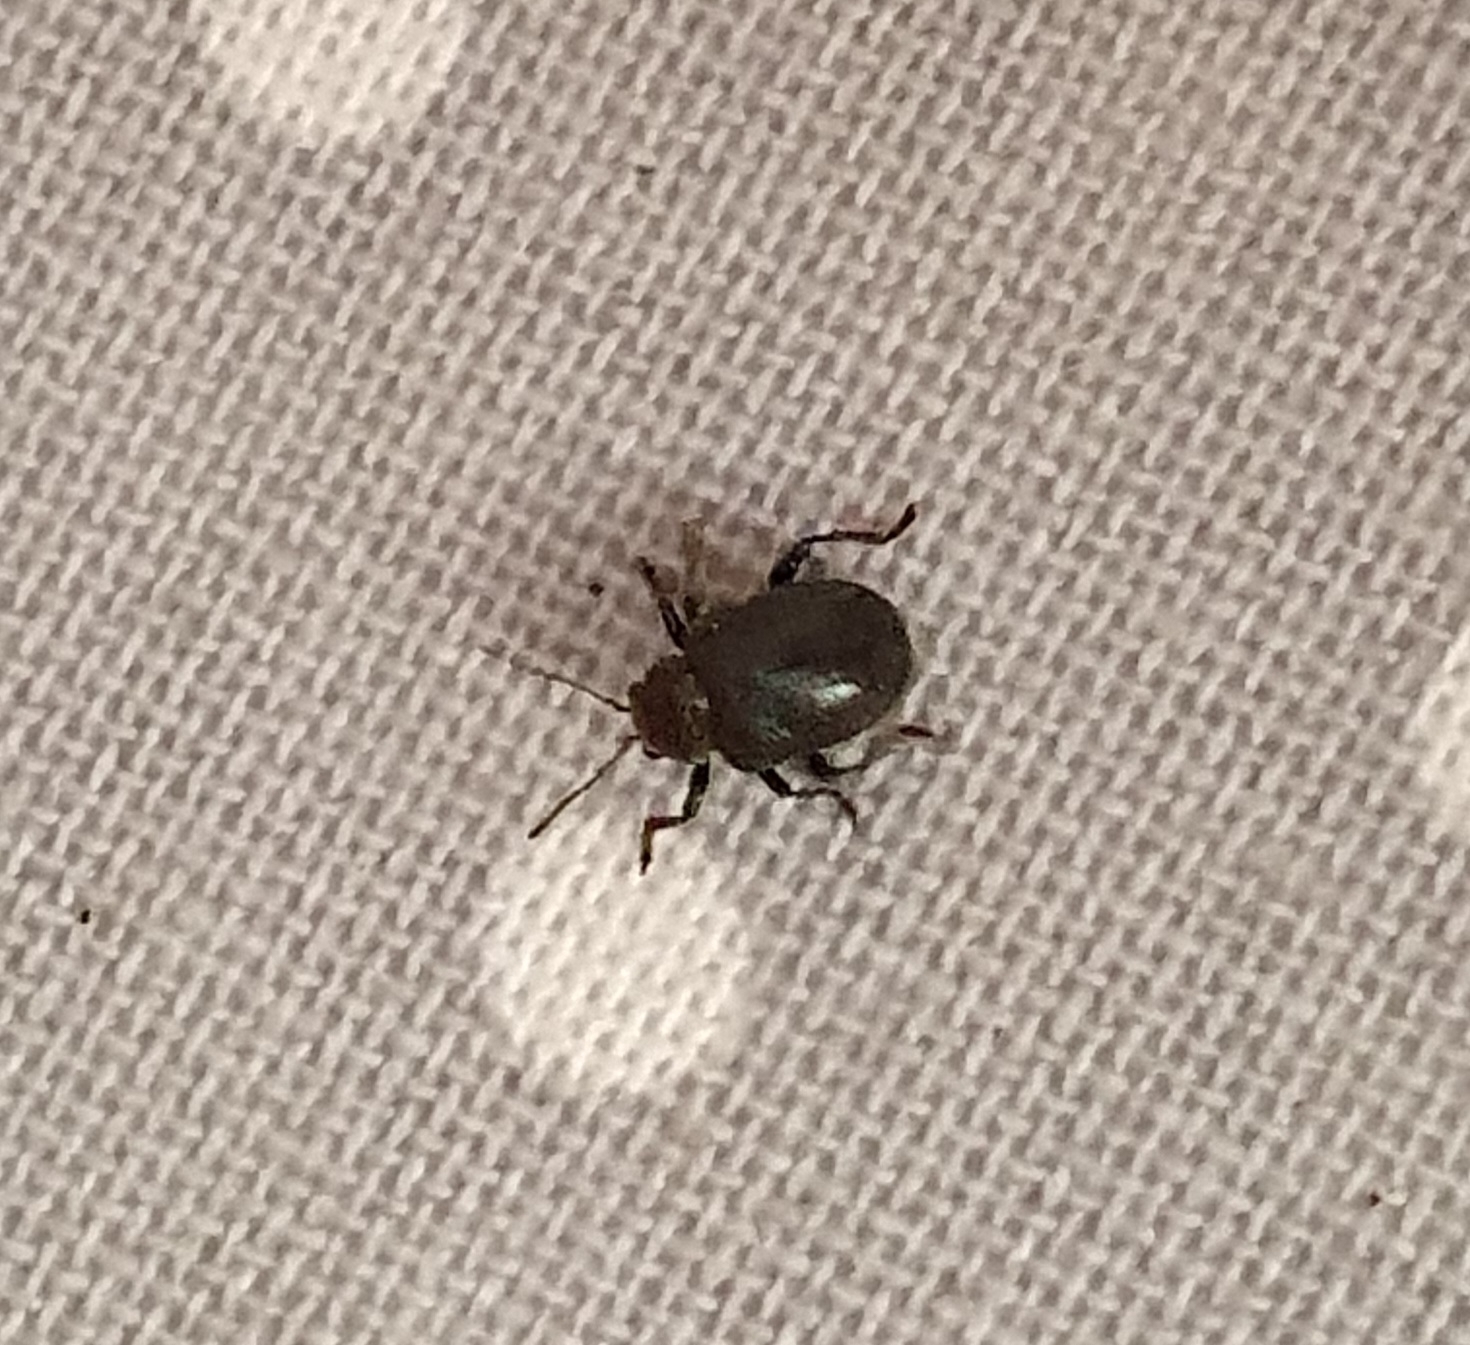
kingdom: Animalia
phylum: Arthropoda
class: Insecta
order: Coleoptera
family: Chrysomelidae
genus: Bromius
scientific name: Bromius obscurus
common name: Western grape rootworm
